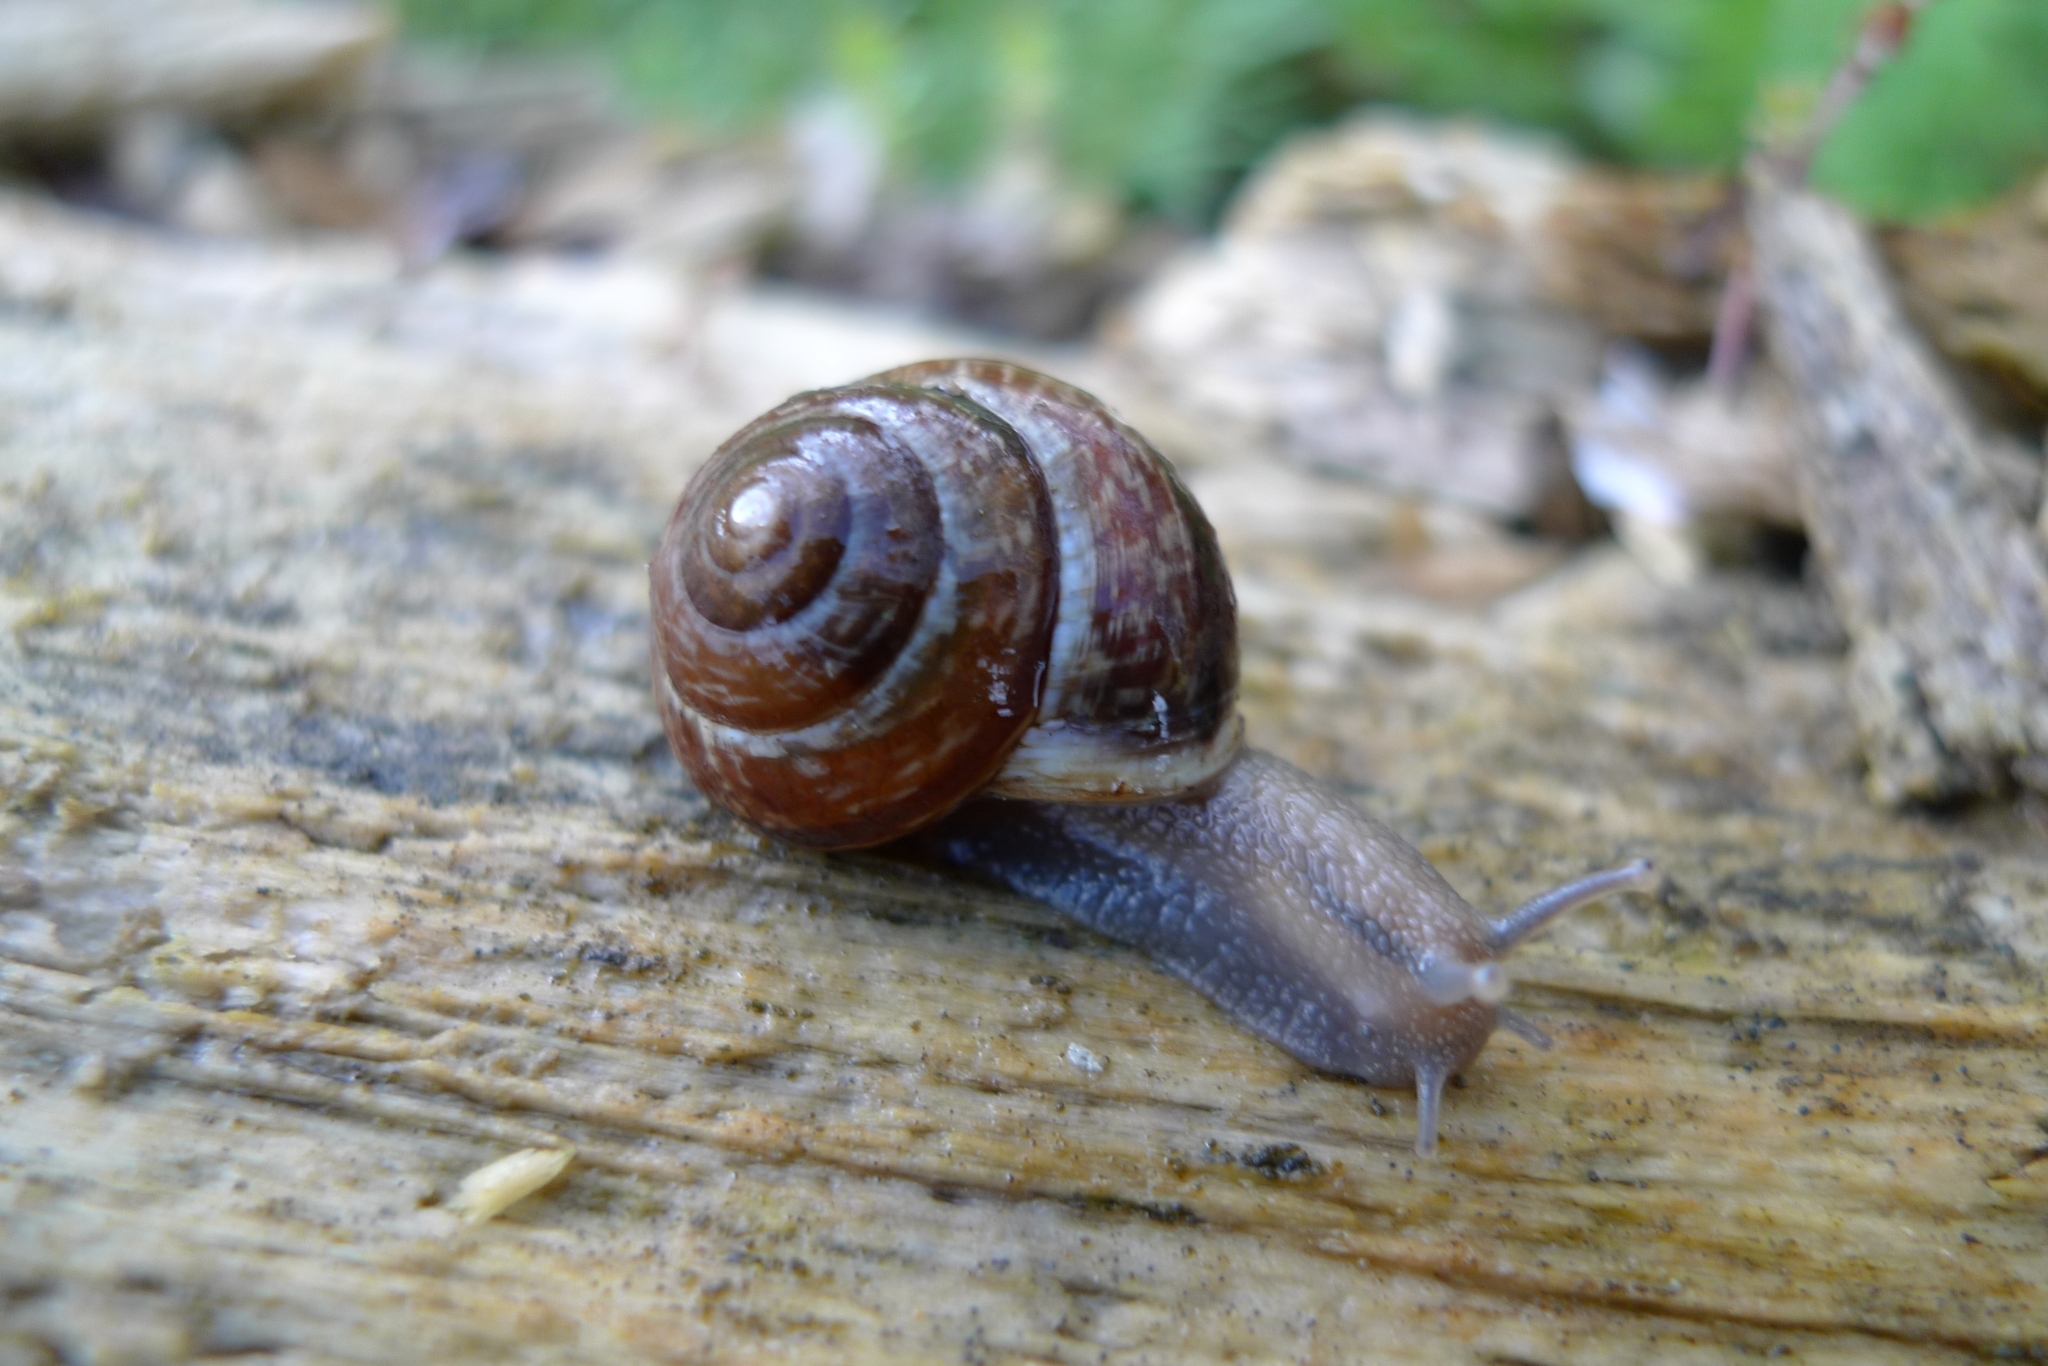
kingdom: Animalia
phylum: Mollusca
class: Gastropoda
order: Stylommatophora
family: Helicidae
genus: Arianta
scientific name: Arianta arbustorum
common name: Copse snail
